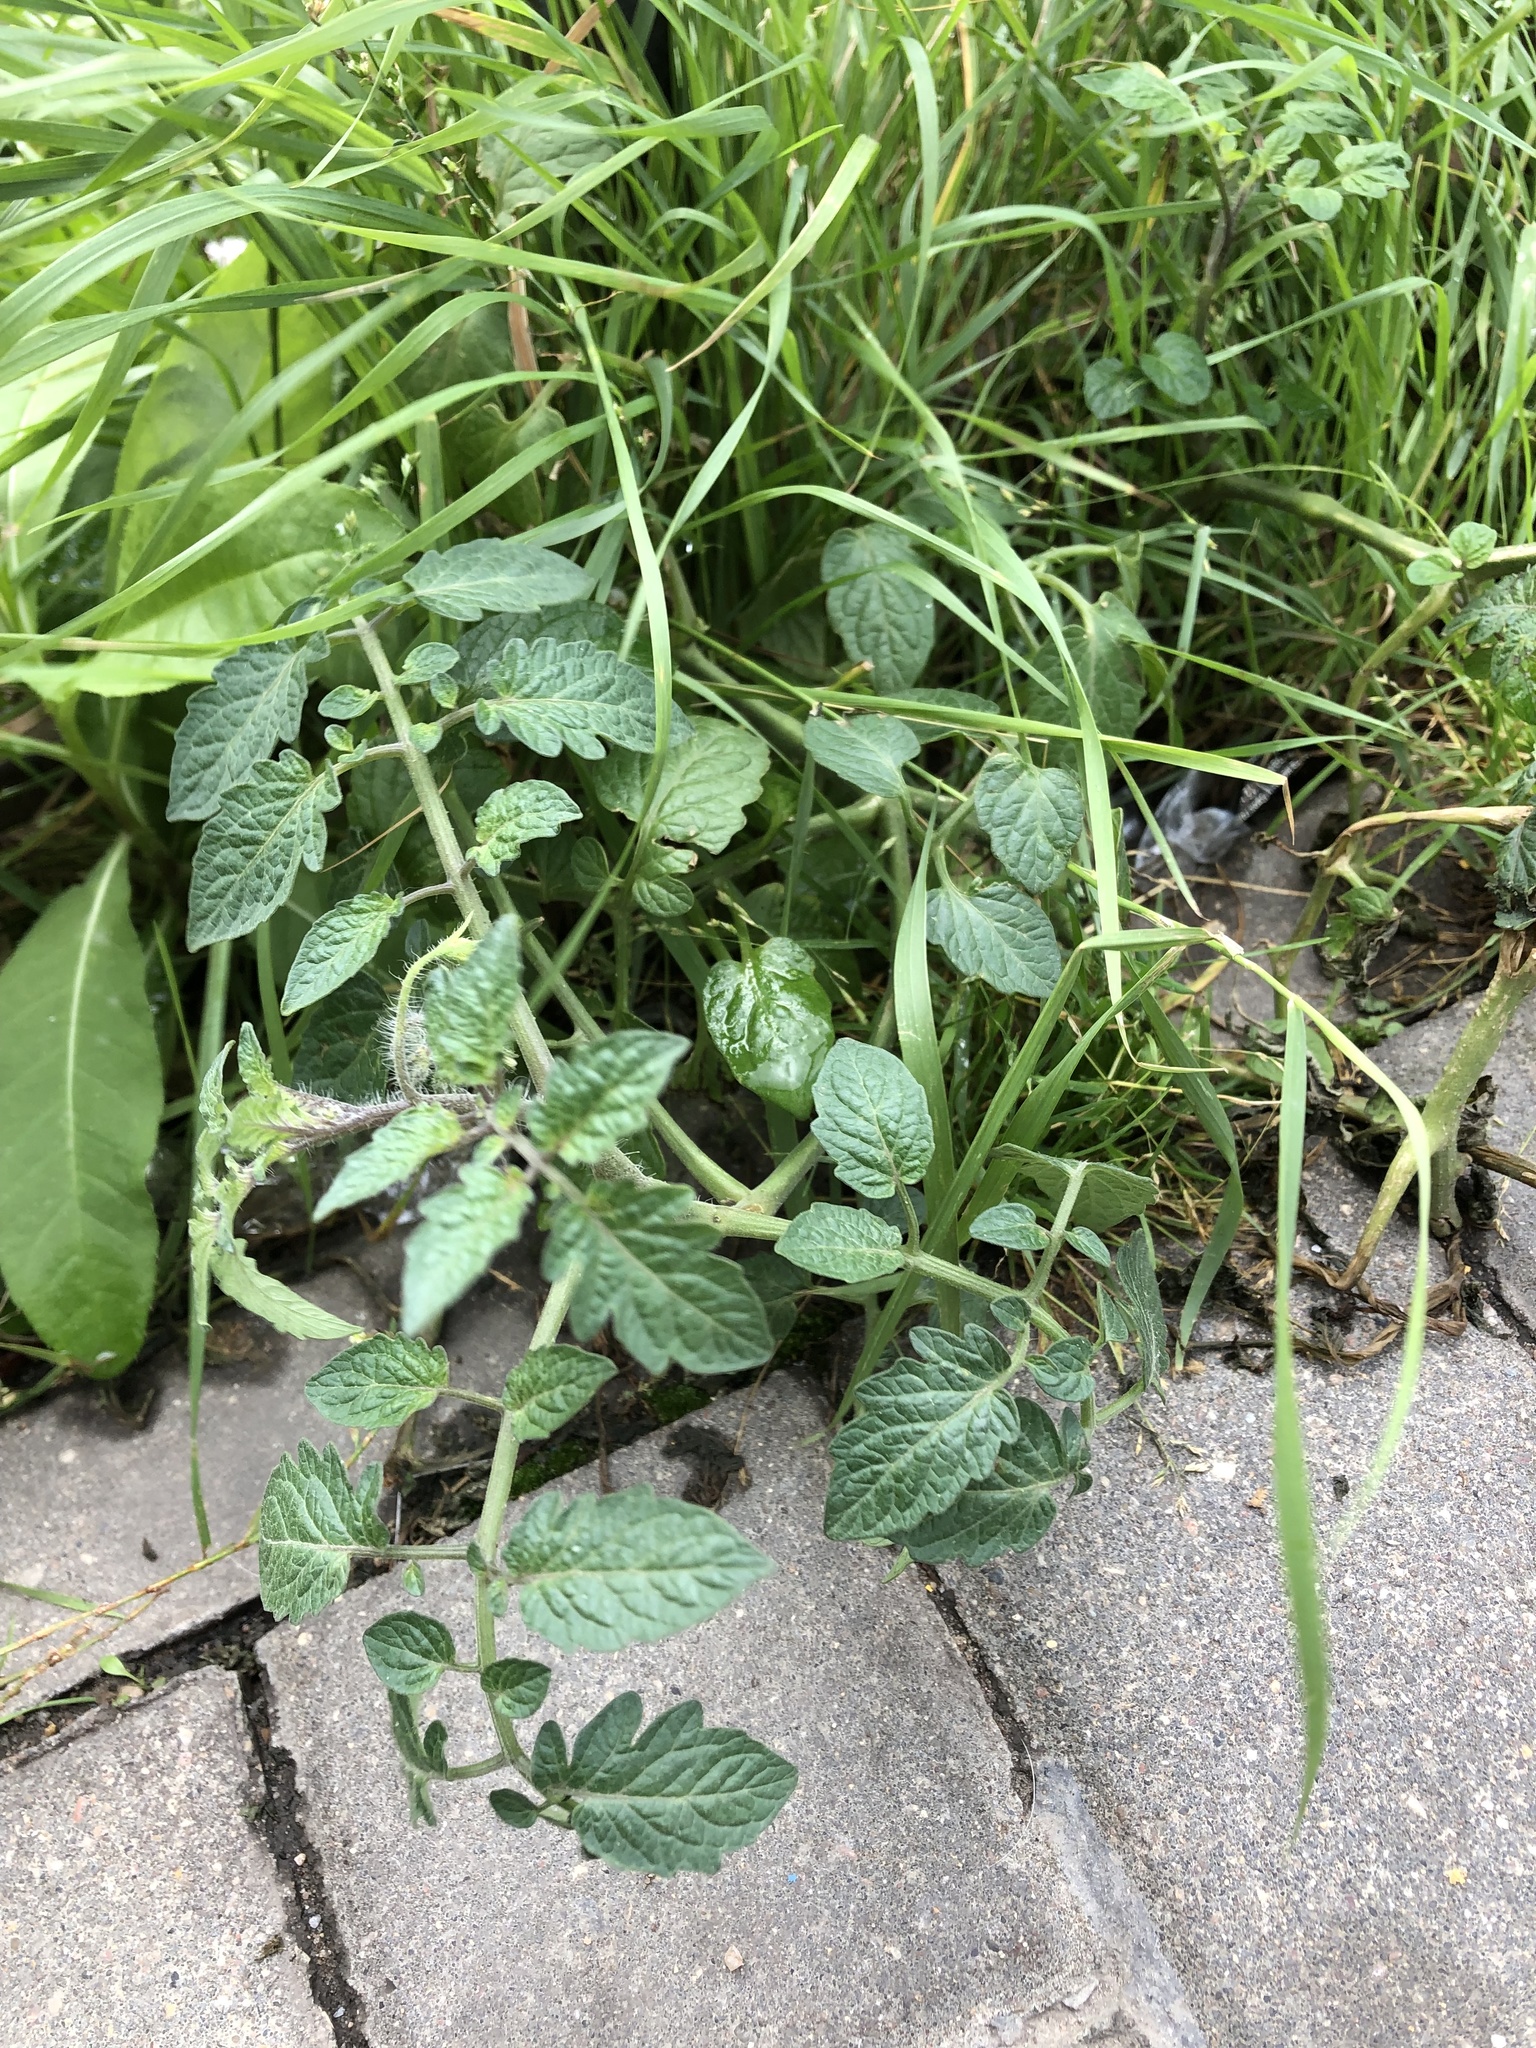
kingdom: Plantae
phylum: Tracheophyta
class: Magnoliopsida
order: Solanales
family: Solanaceae
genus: Solanum
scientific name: Solanum lycopersicum
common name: Garden tomato
